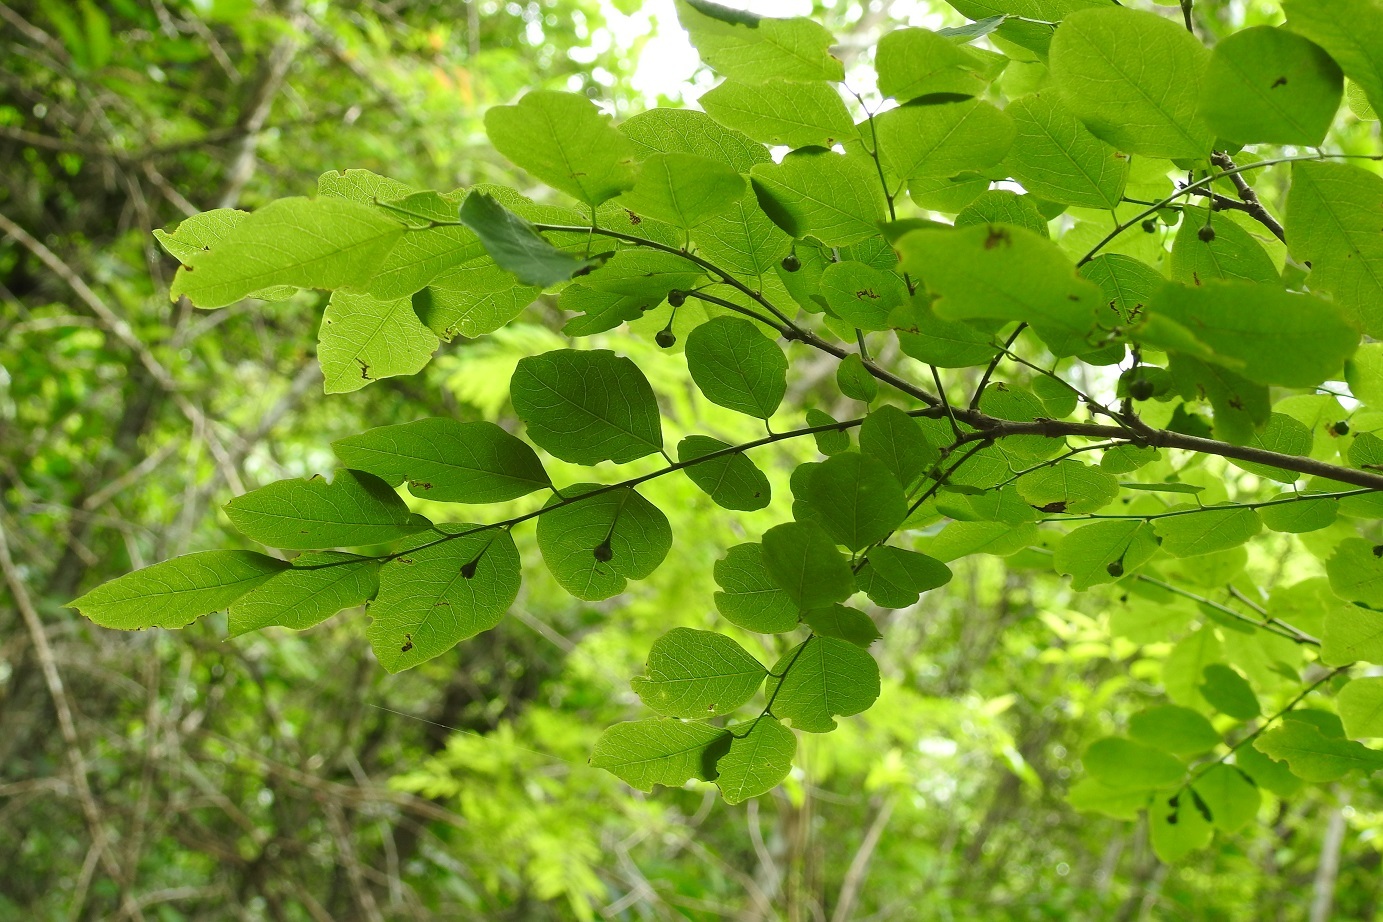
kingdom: Plantae
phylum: Tracheophyta
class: Magnoliopsida
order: Malpighiales
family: Phyllanthaceae
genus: Phyllanthus
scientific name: Phyllanthus mocinoanus
